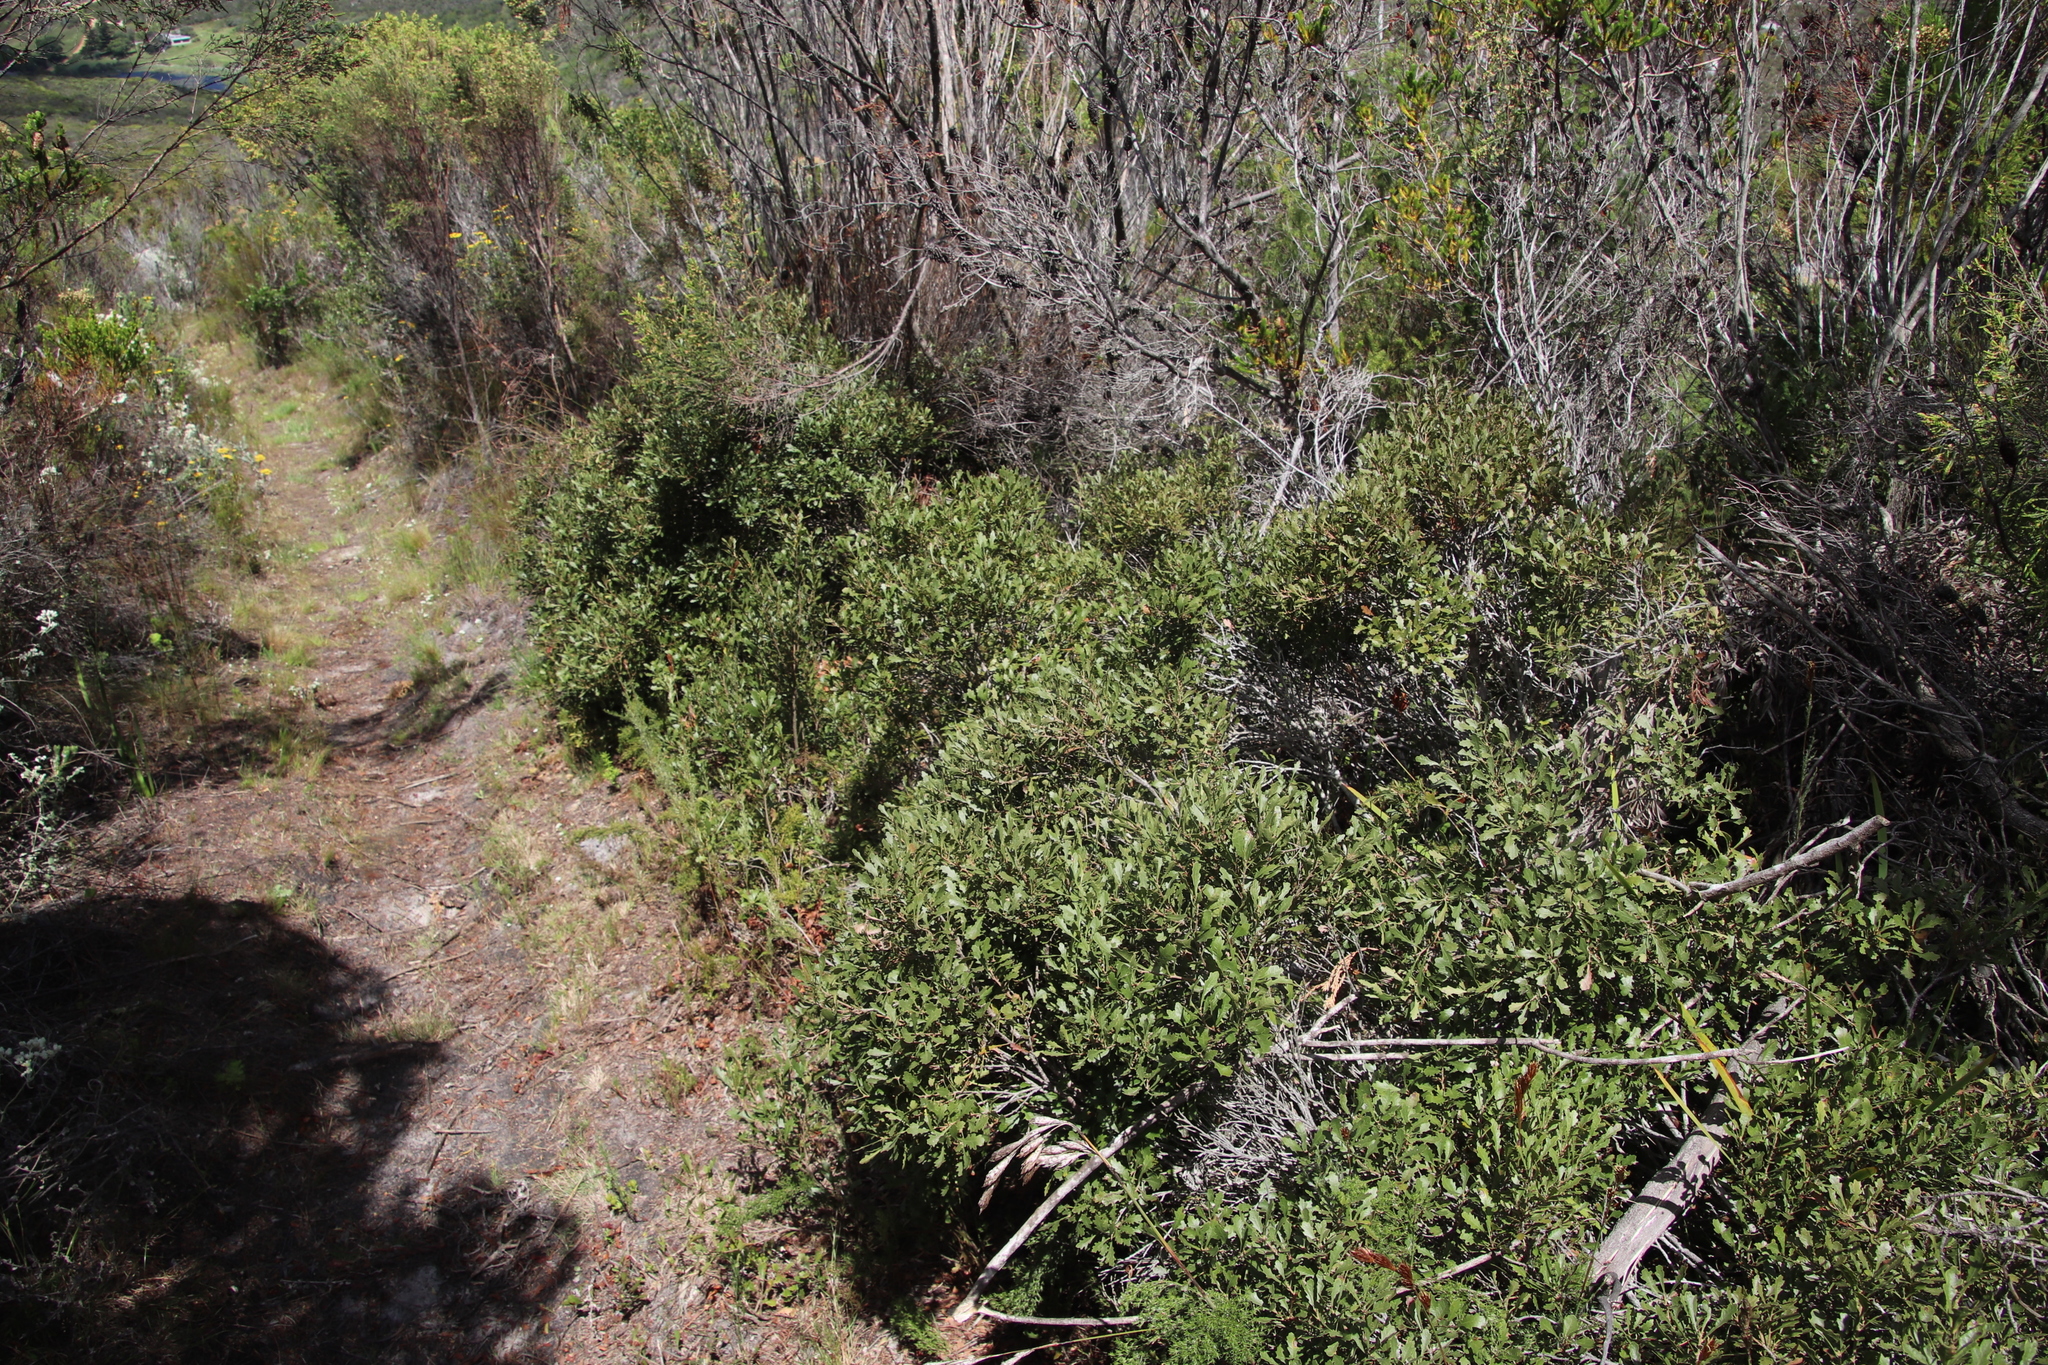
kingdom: Plantae
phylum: Tracheophyta
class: Magnoliopsida
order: Fagales
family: Myricaceae
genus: Morella
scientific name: Morella quercifolia
